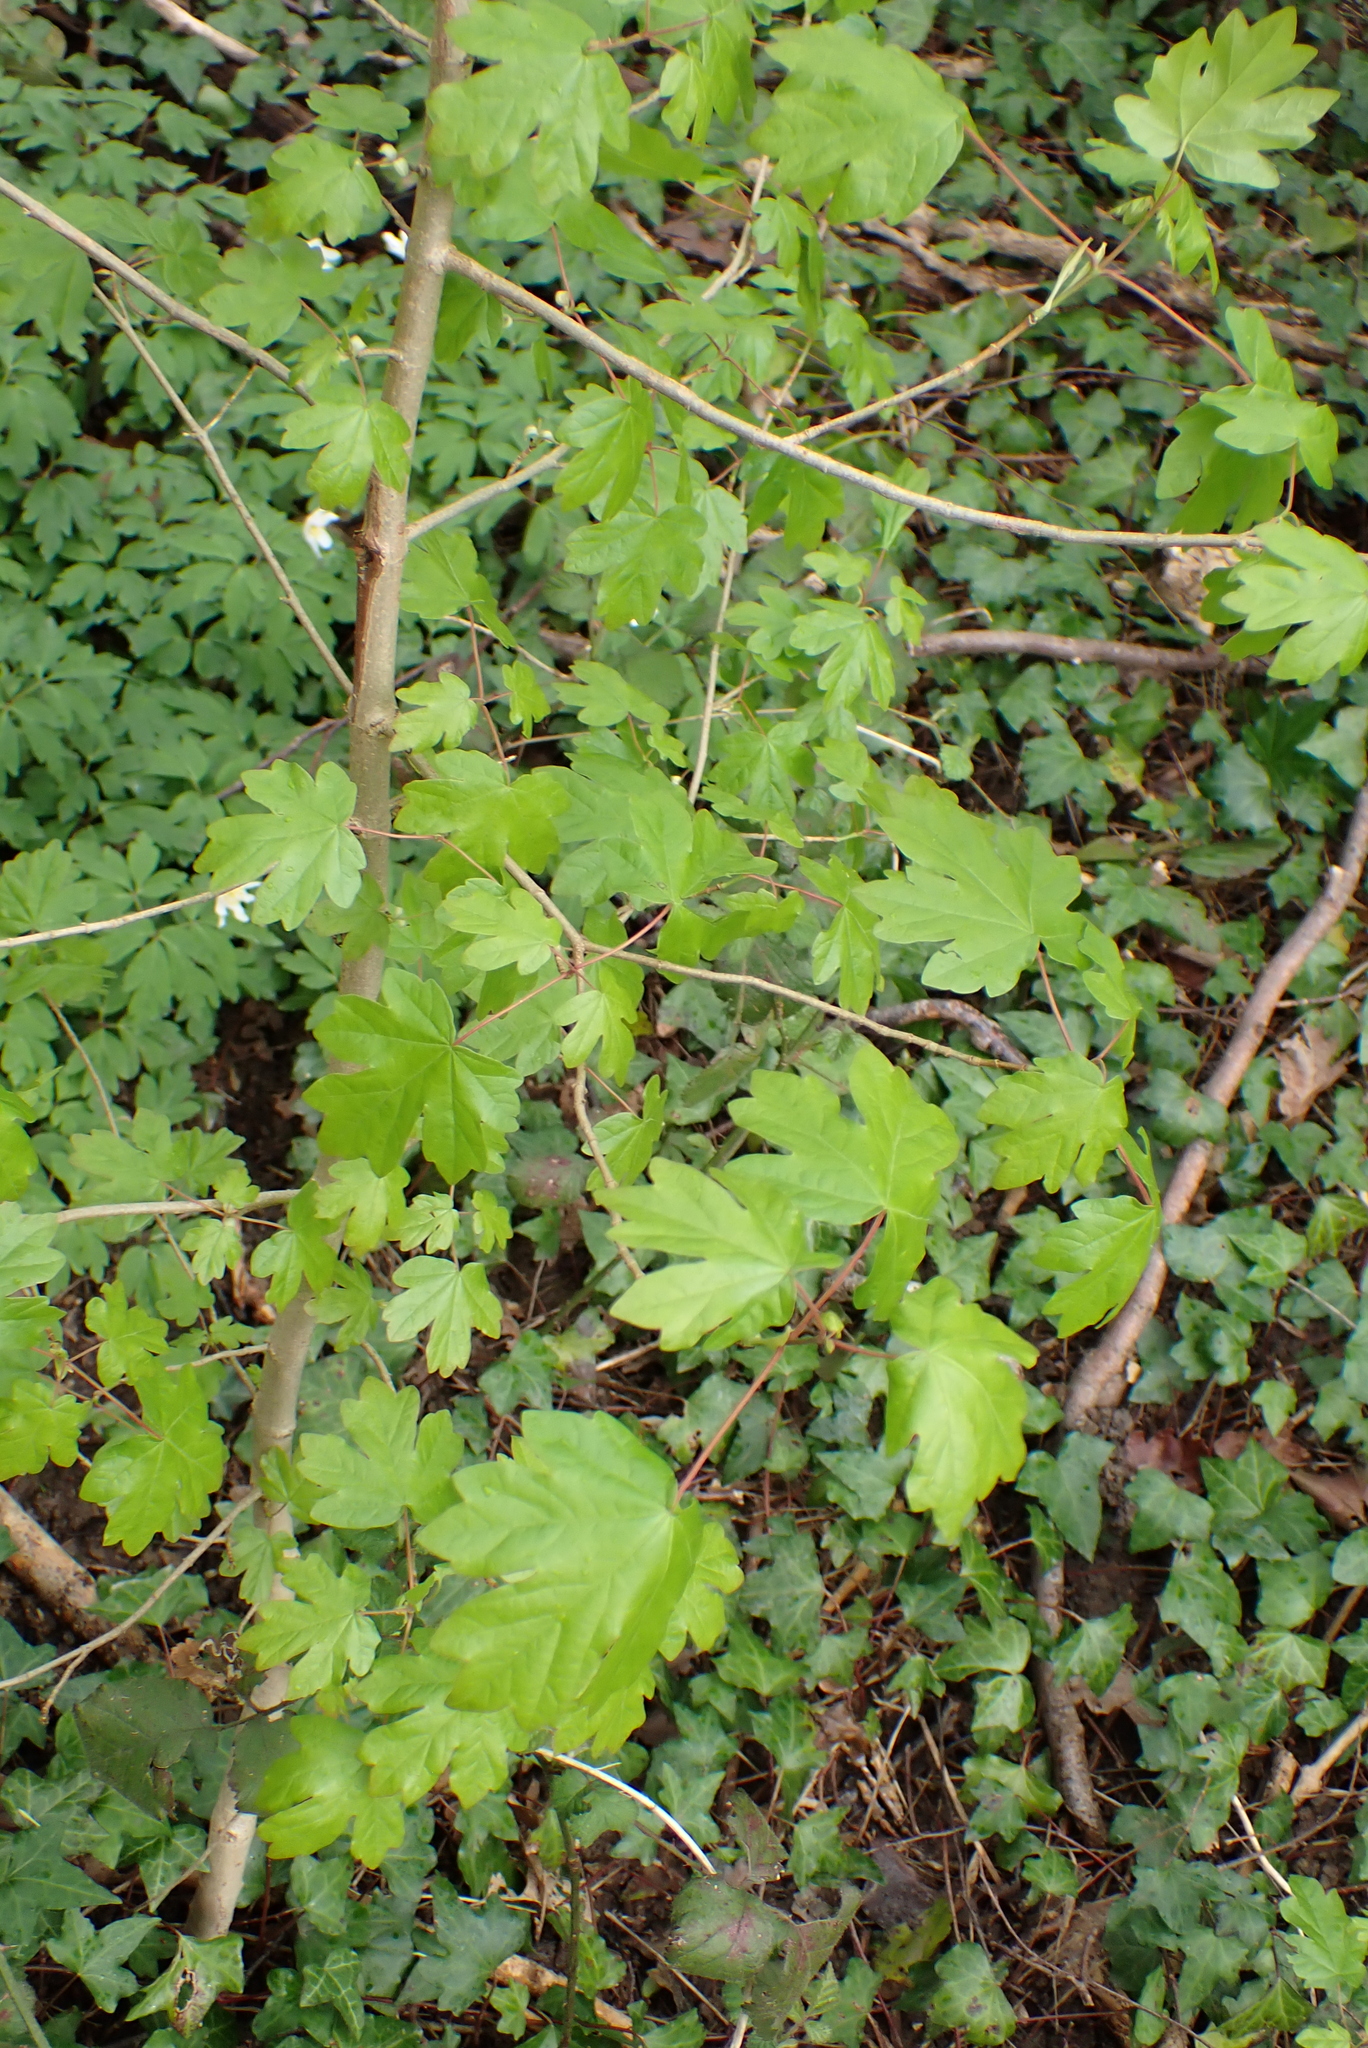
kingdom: Plantae
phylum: Tracheophyta
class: Magnoliopsida
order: Sapindales
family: Sapindaceae
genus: Acer
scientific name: Acer campestre
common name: Field maple
